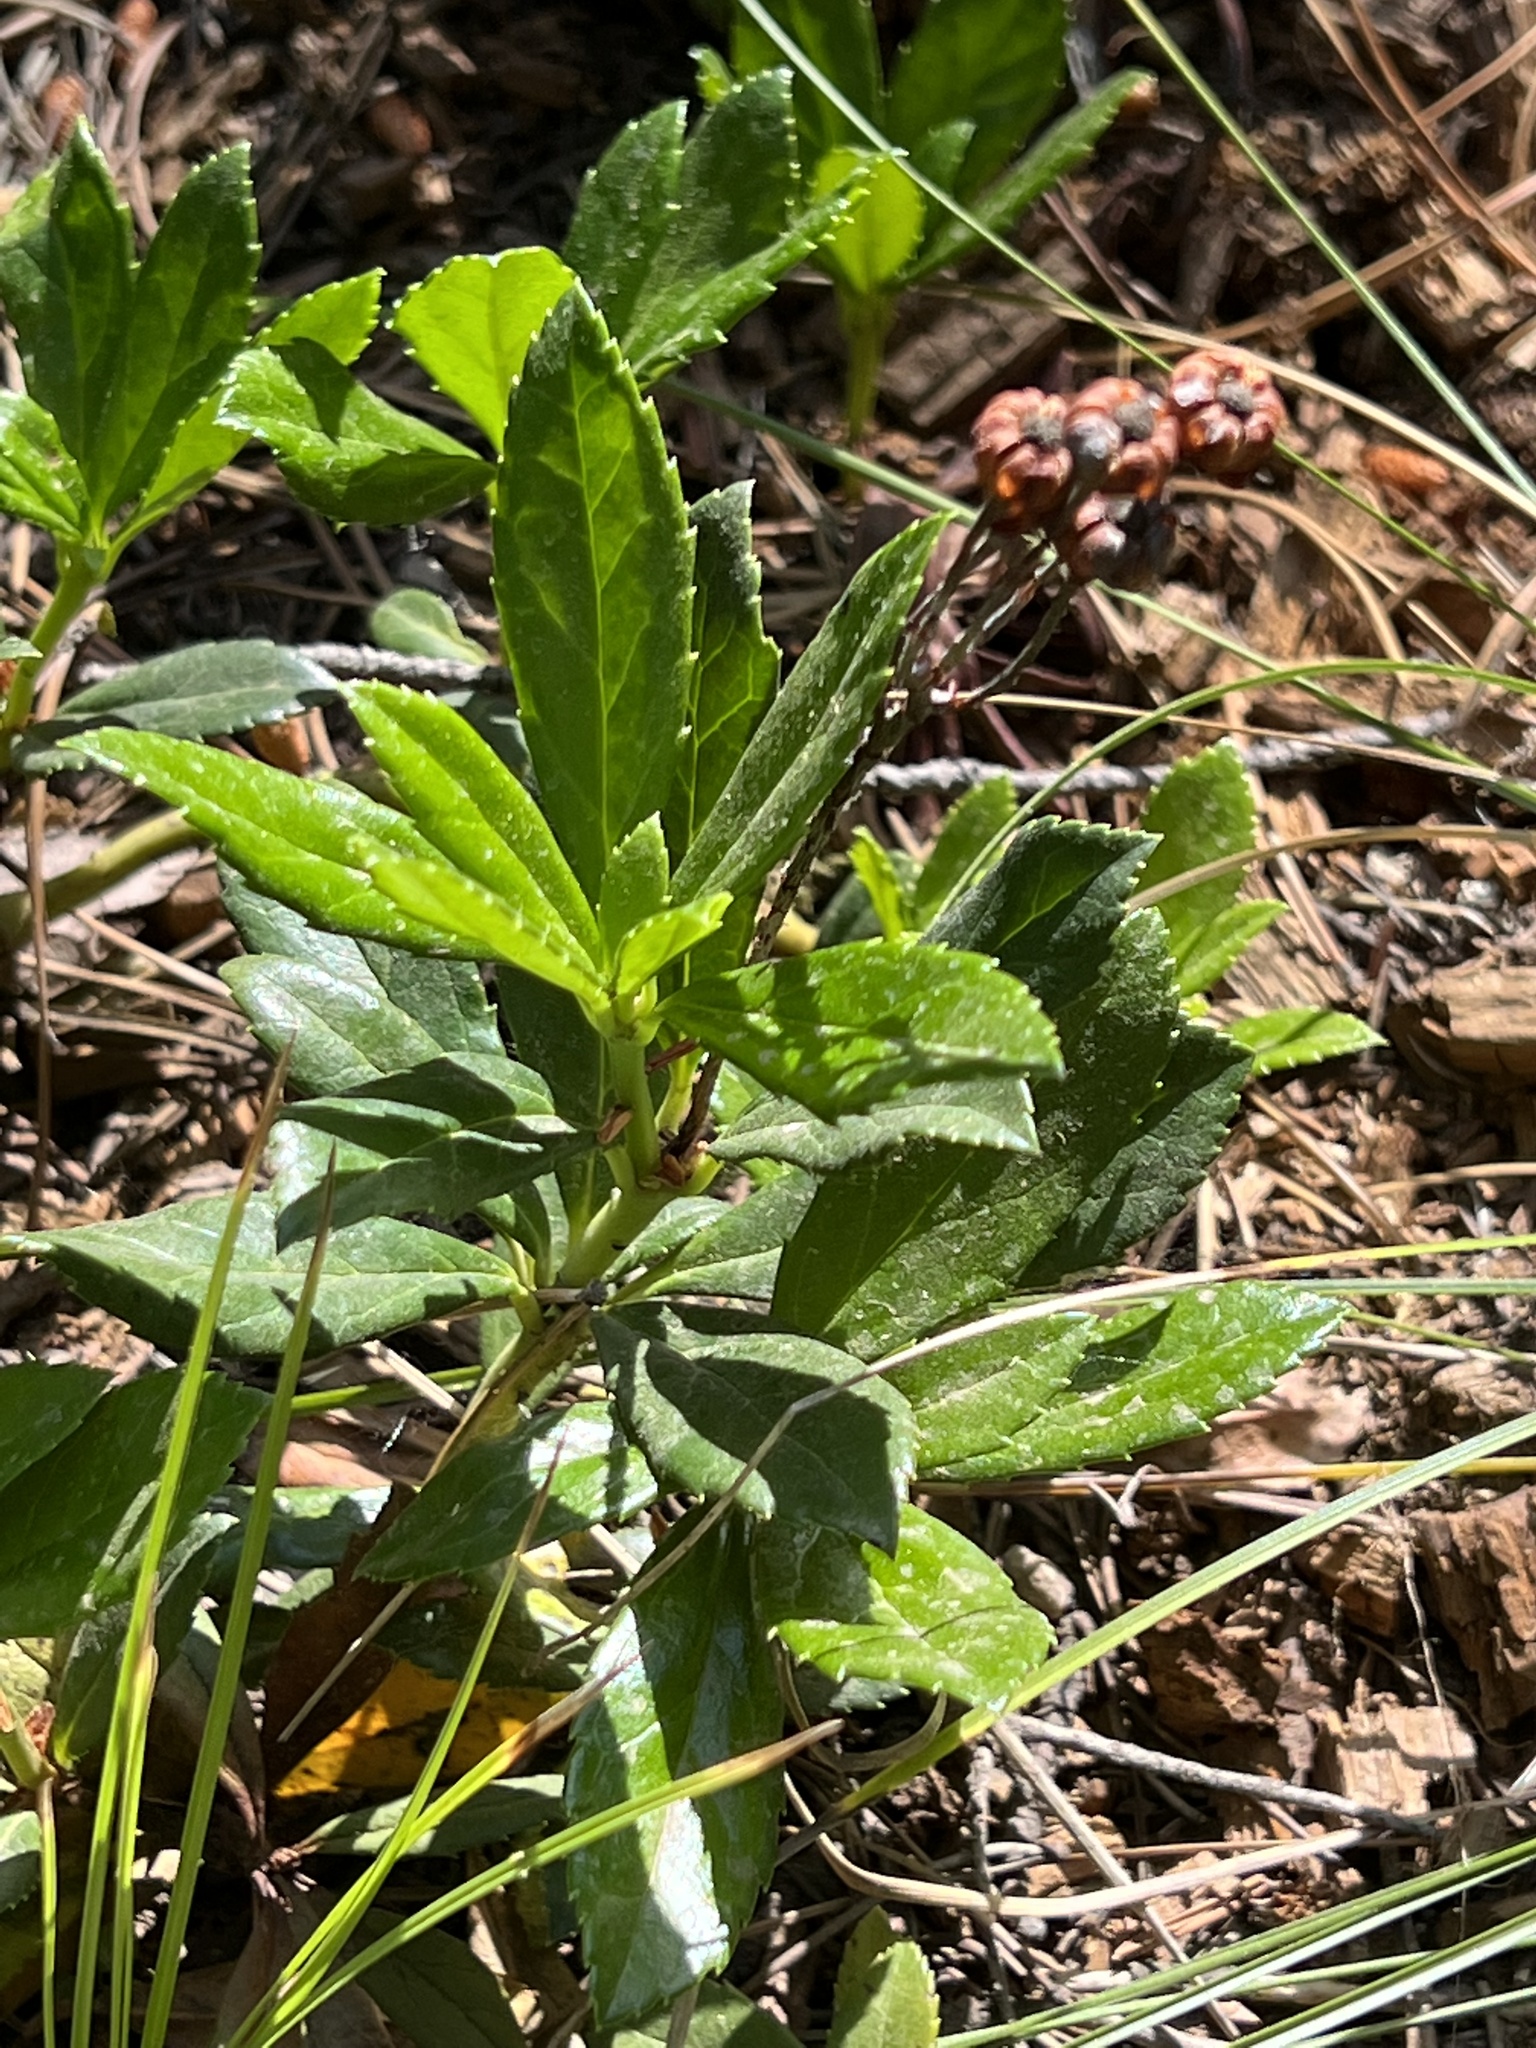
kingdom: Plantae
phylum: Tracheophyta
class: Magnoliopsida
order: Ericales
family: Ericaceae
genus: Chimaphila
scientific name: Chimaphila umbellata
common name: Pipsissewa
